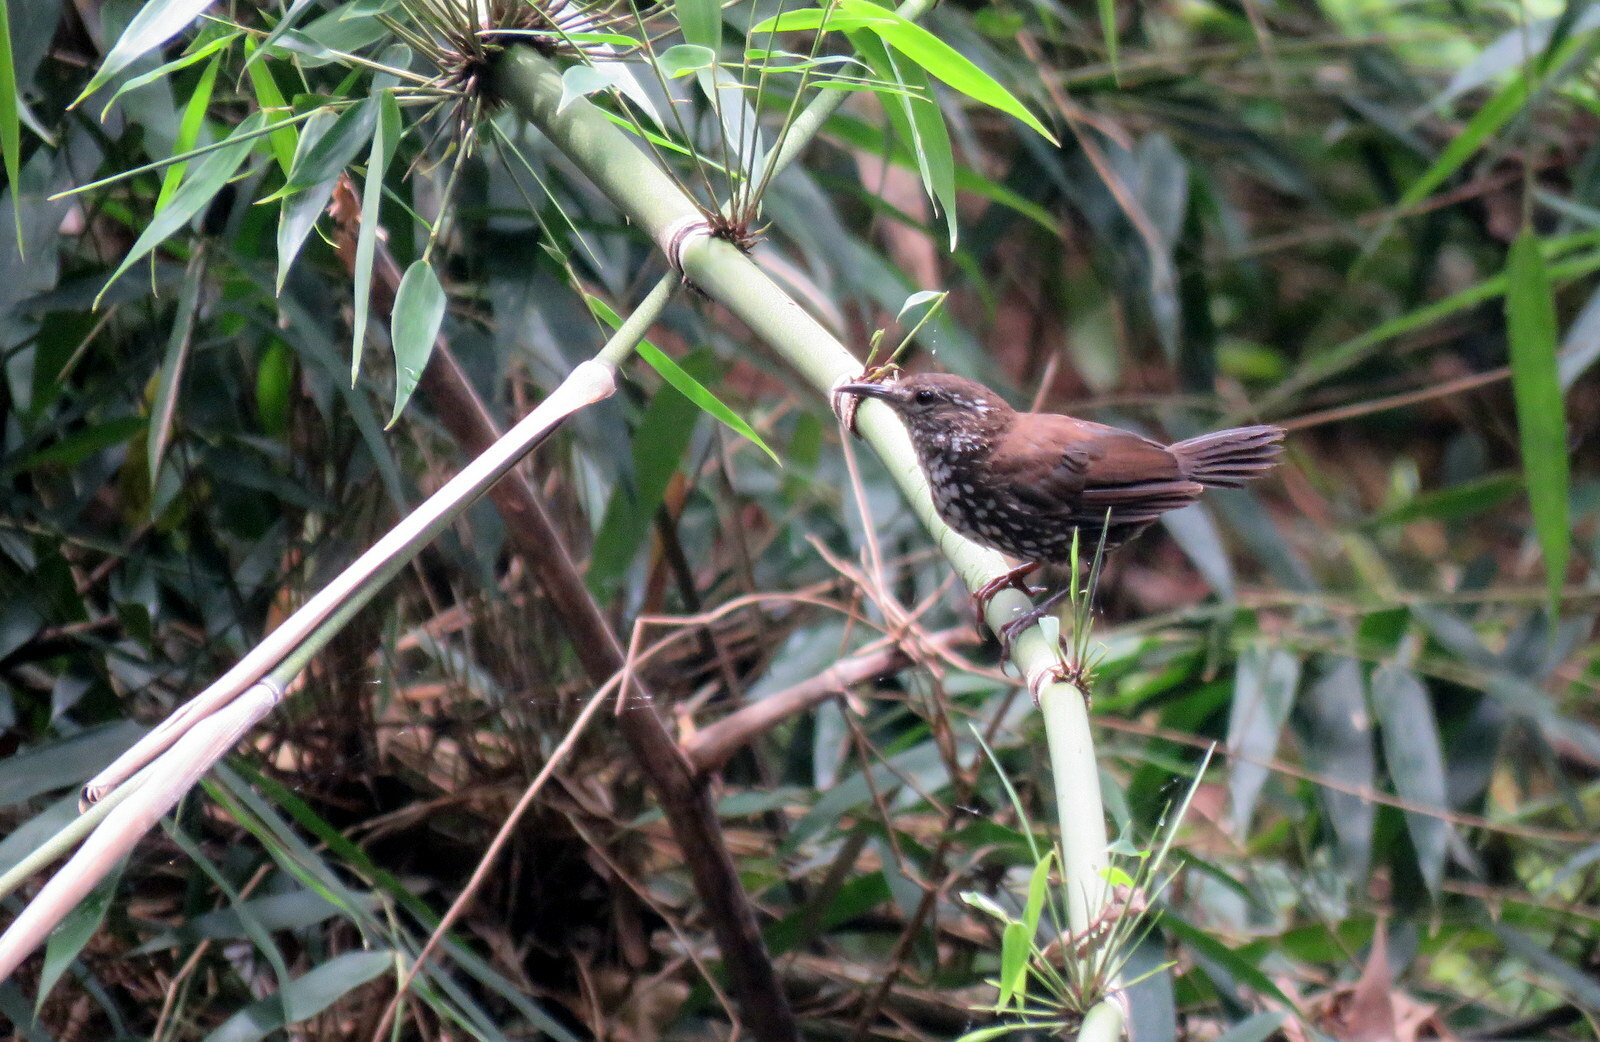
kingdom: Animalia
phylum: Chordata
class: Aves
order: Passeriformes
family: Furnariidae
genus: Lochmias
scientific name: Lochmias nematura
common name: Sharp-tailed streamcreeper
